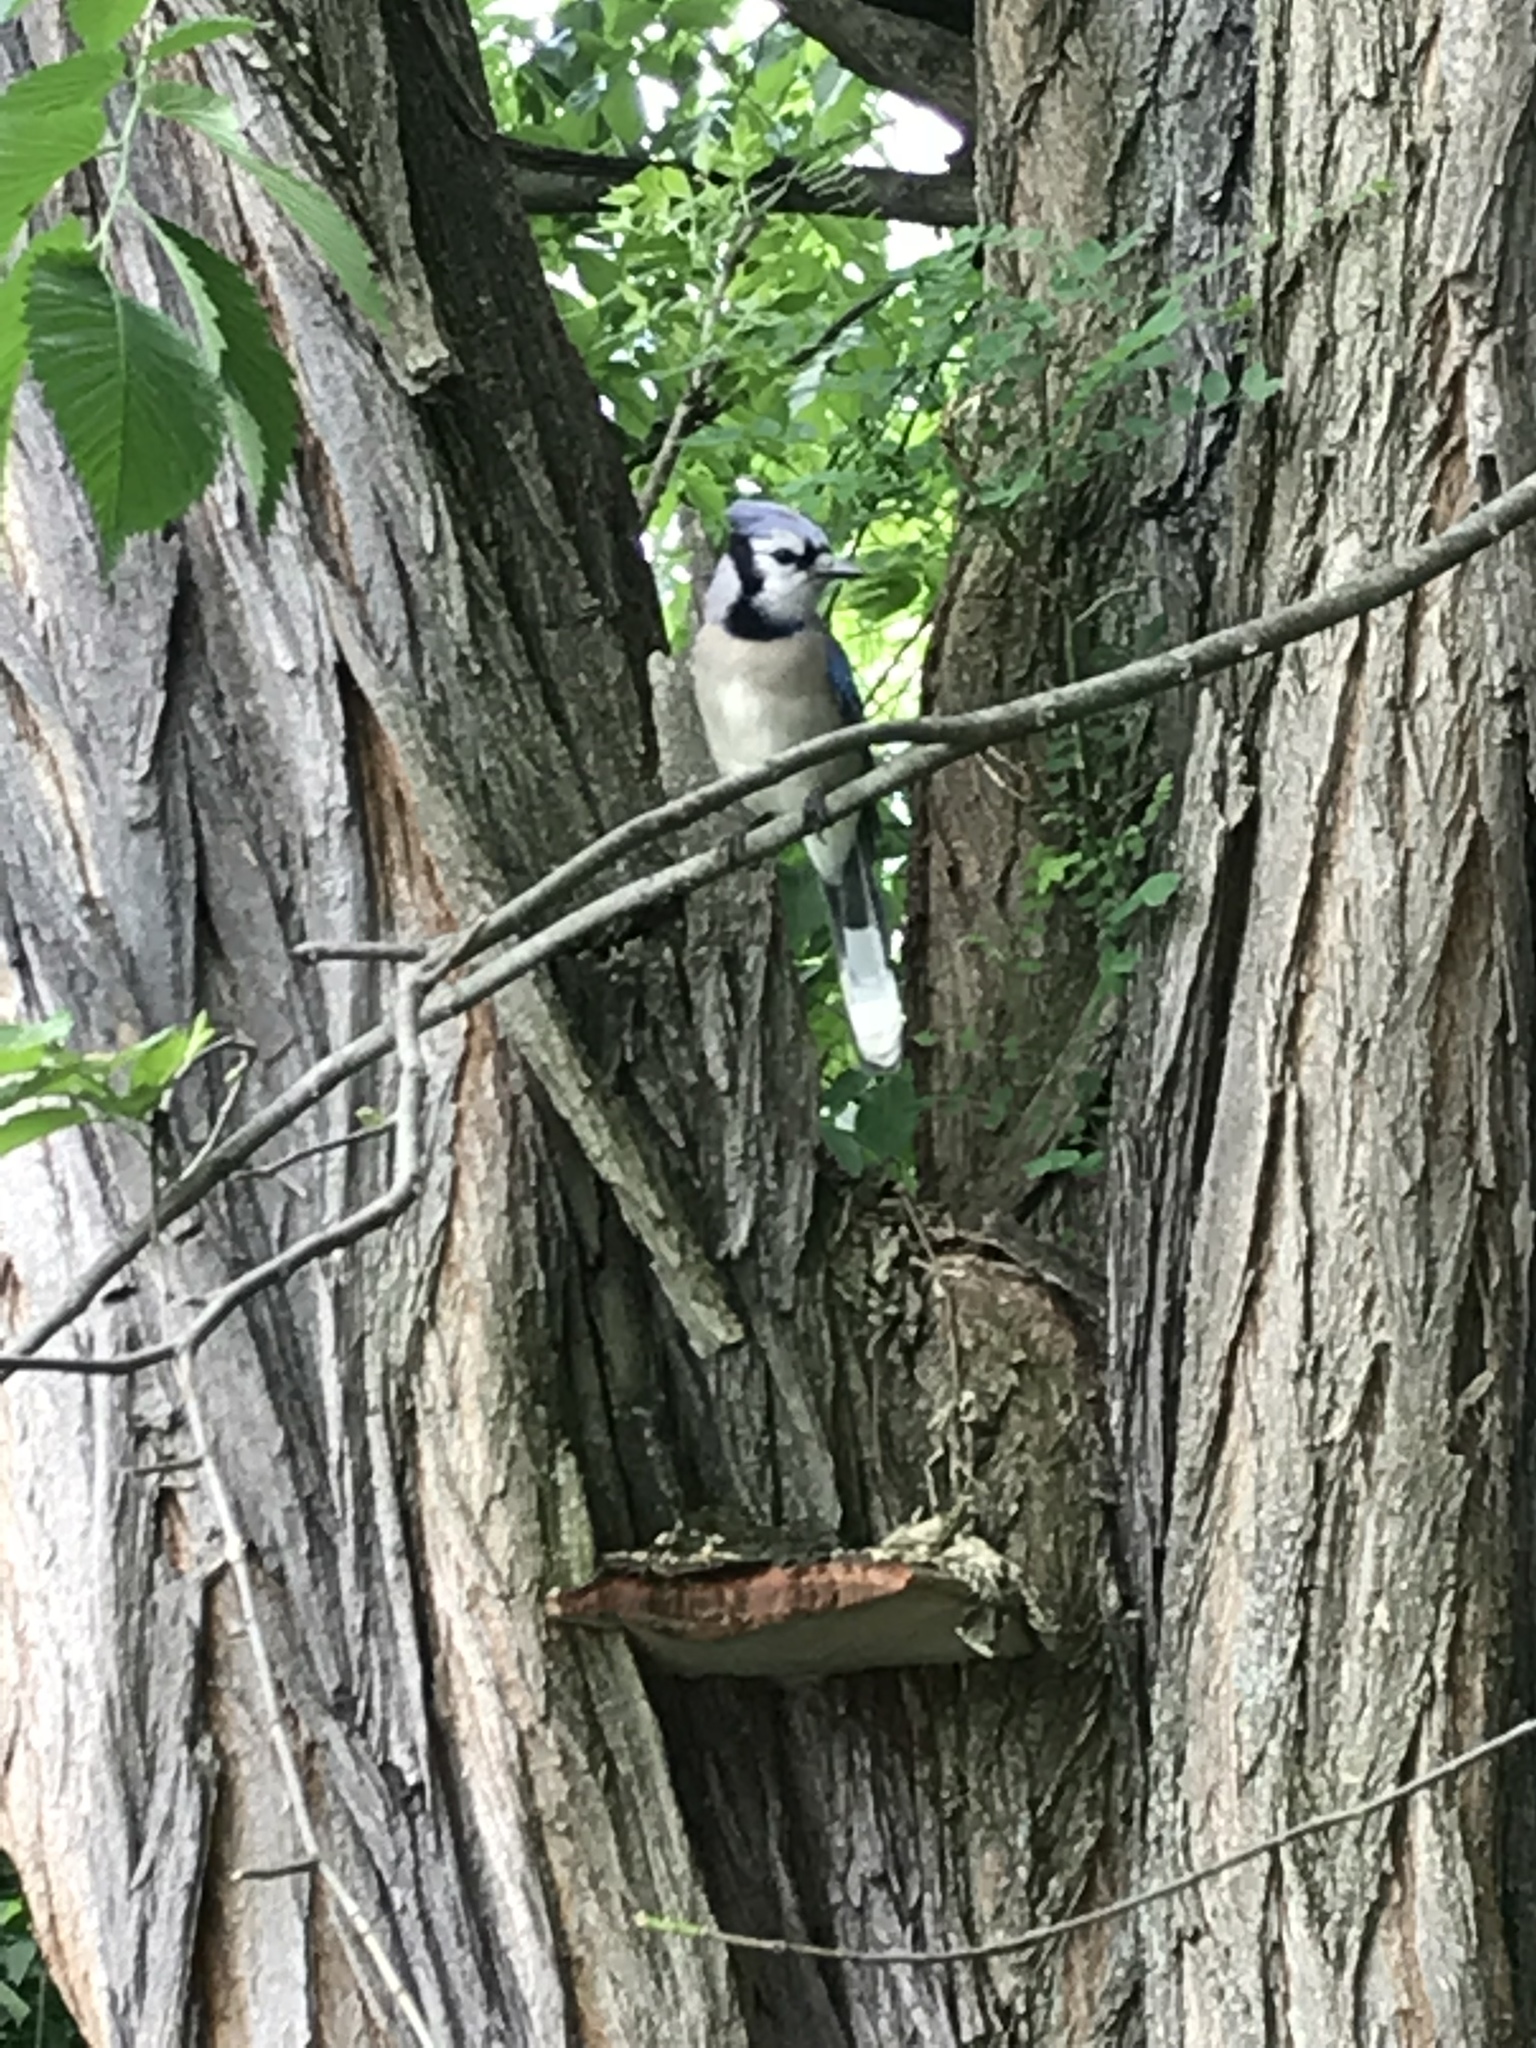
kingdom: Animalia
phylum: Chordata
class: Aves
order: Passeriformes
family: Corvidae
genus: Cyanocitta
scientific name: Cyanocitta cristata
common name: Blue jay
